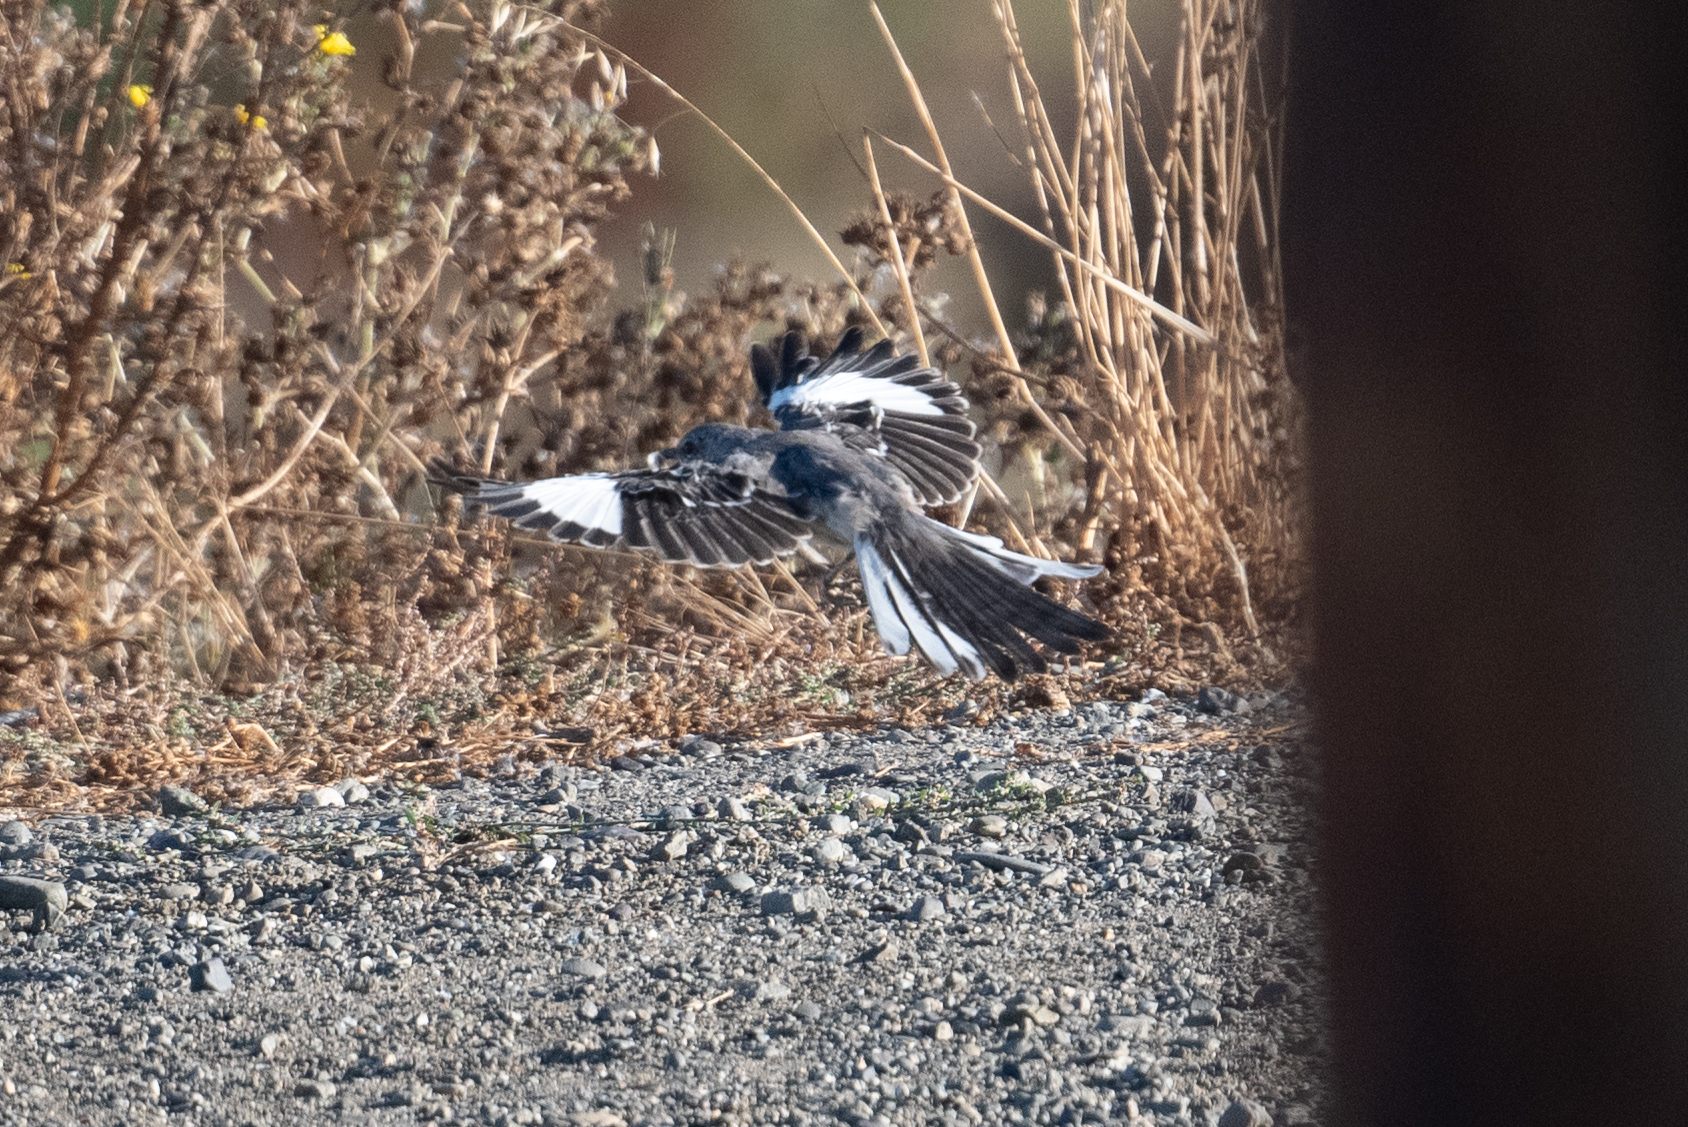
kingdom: Animalia
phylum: Chordata
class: Aves
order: Passeriformes
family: Mimidae
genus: Mimus
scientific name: Mimus polyglottos
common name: Northern mockingbird
